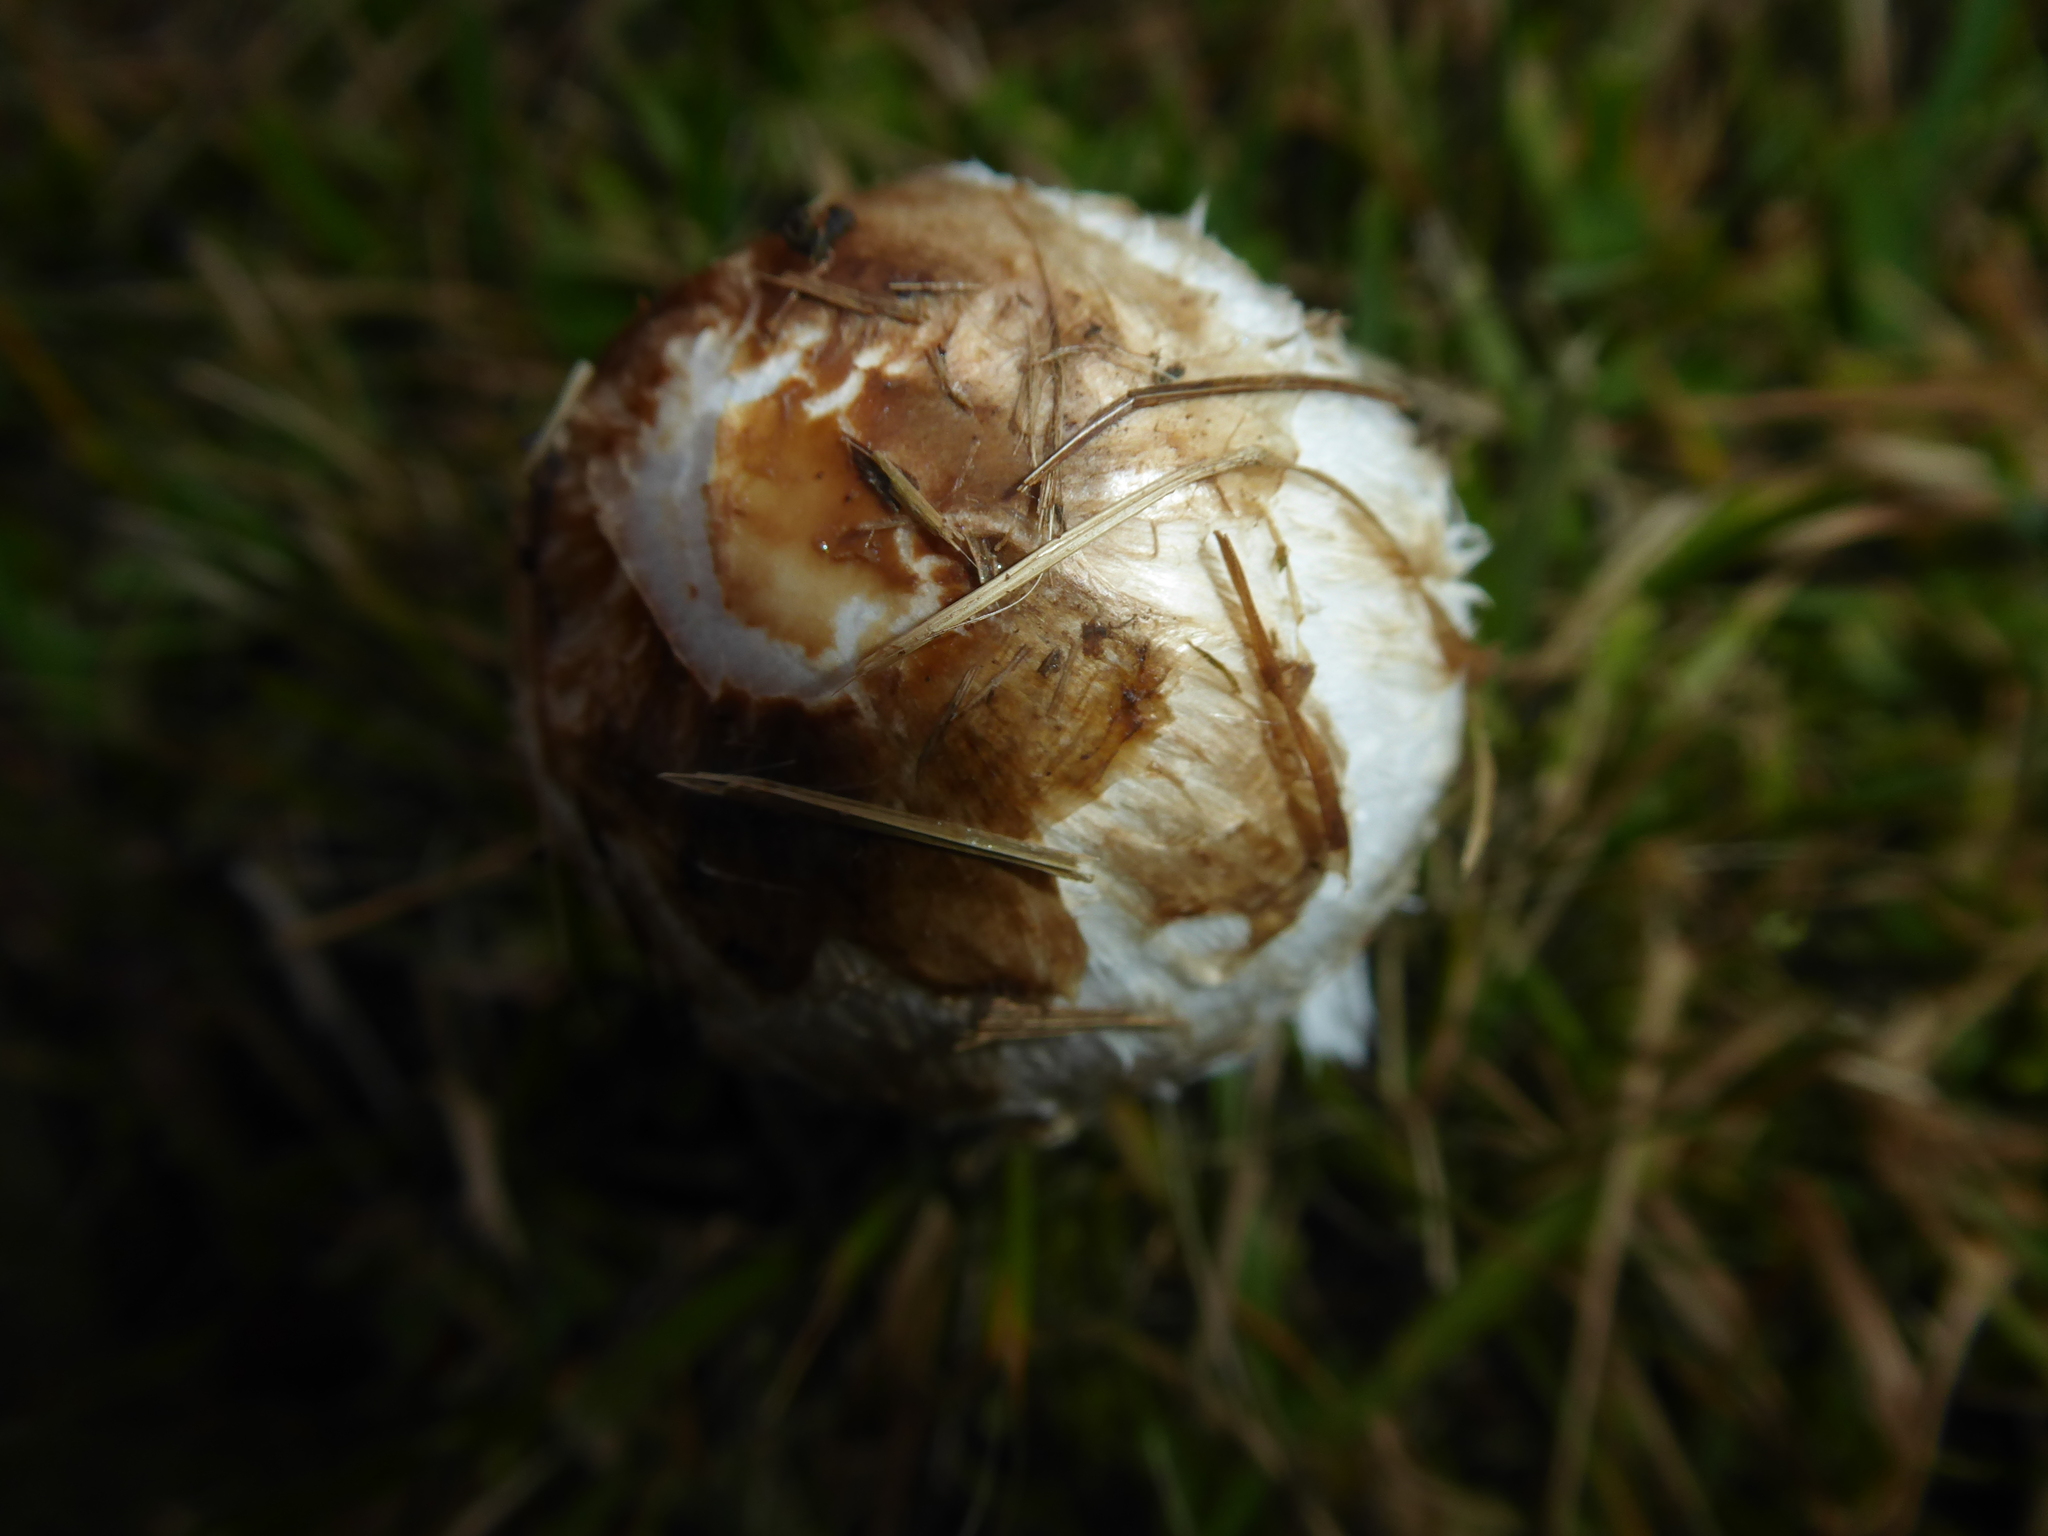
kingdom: Fungi
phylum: Basidiomycota
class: Agaricomycetes
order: Agaricales
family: Agaricaceae
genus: Coprinus
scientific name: Coprinus comatus
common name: Lawyer's wig
